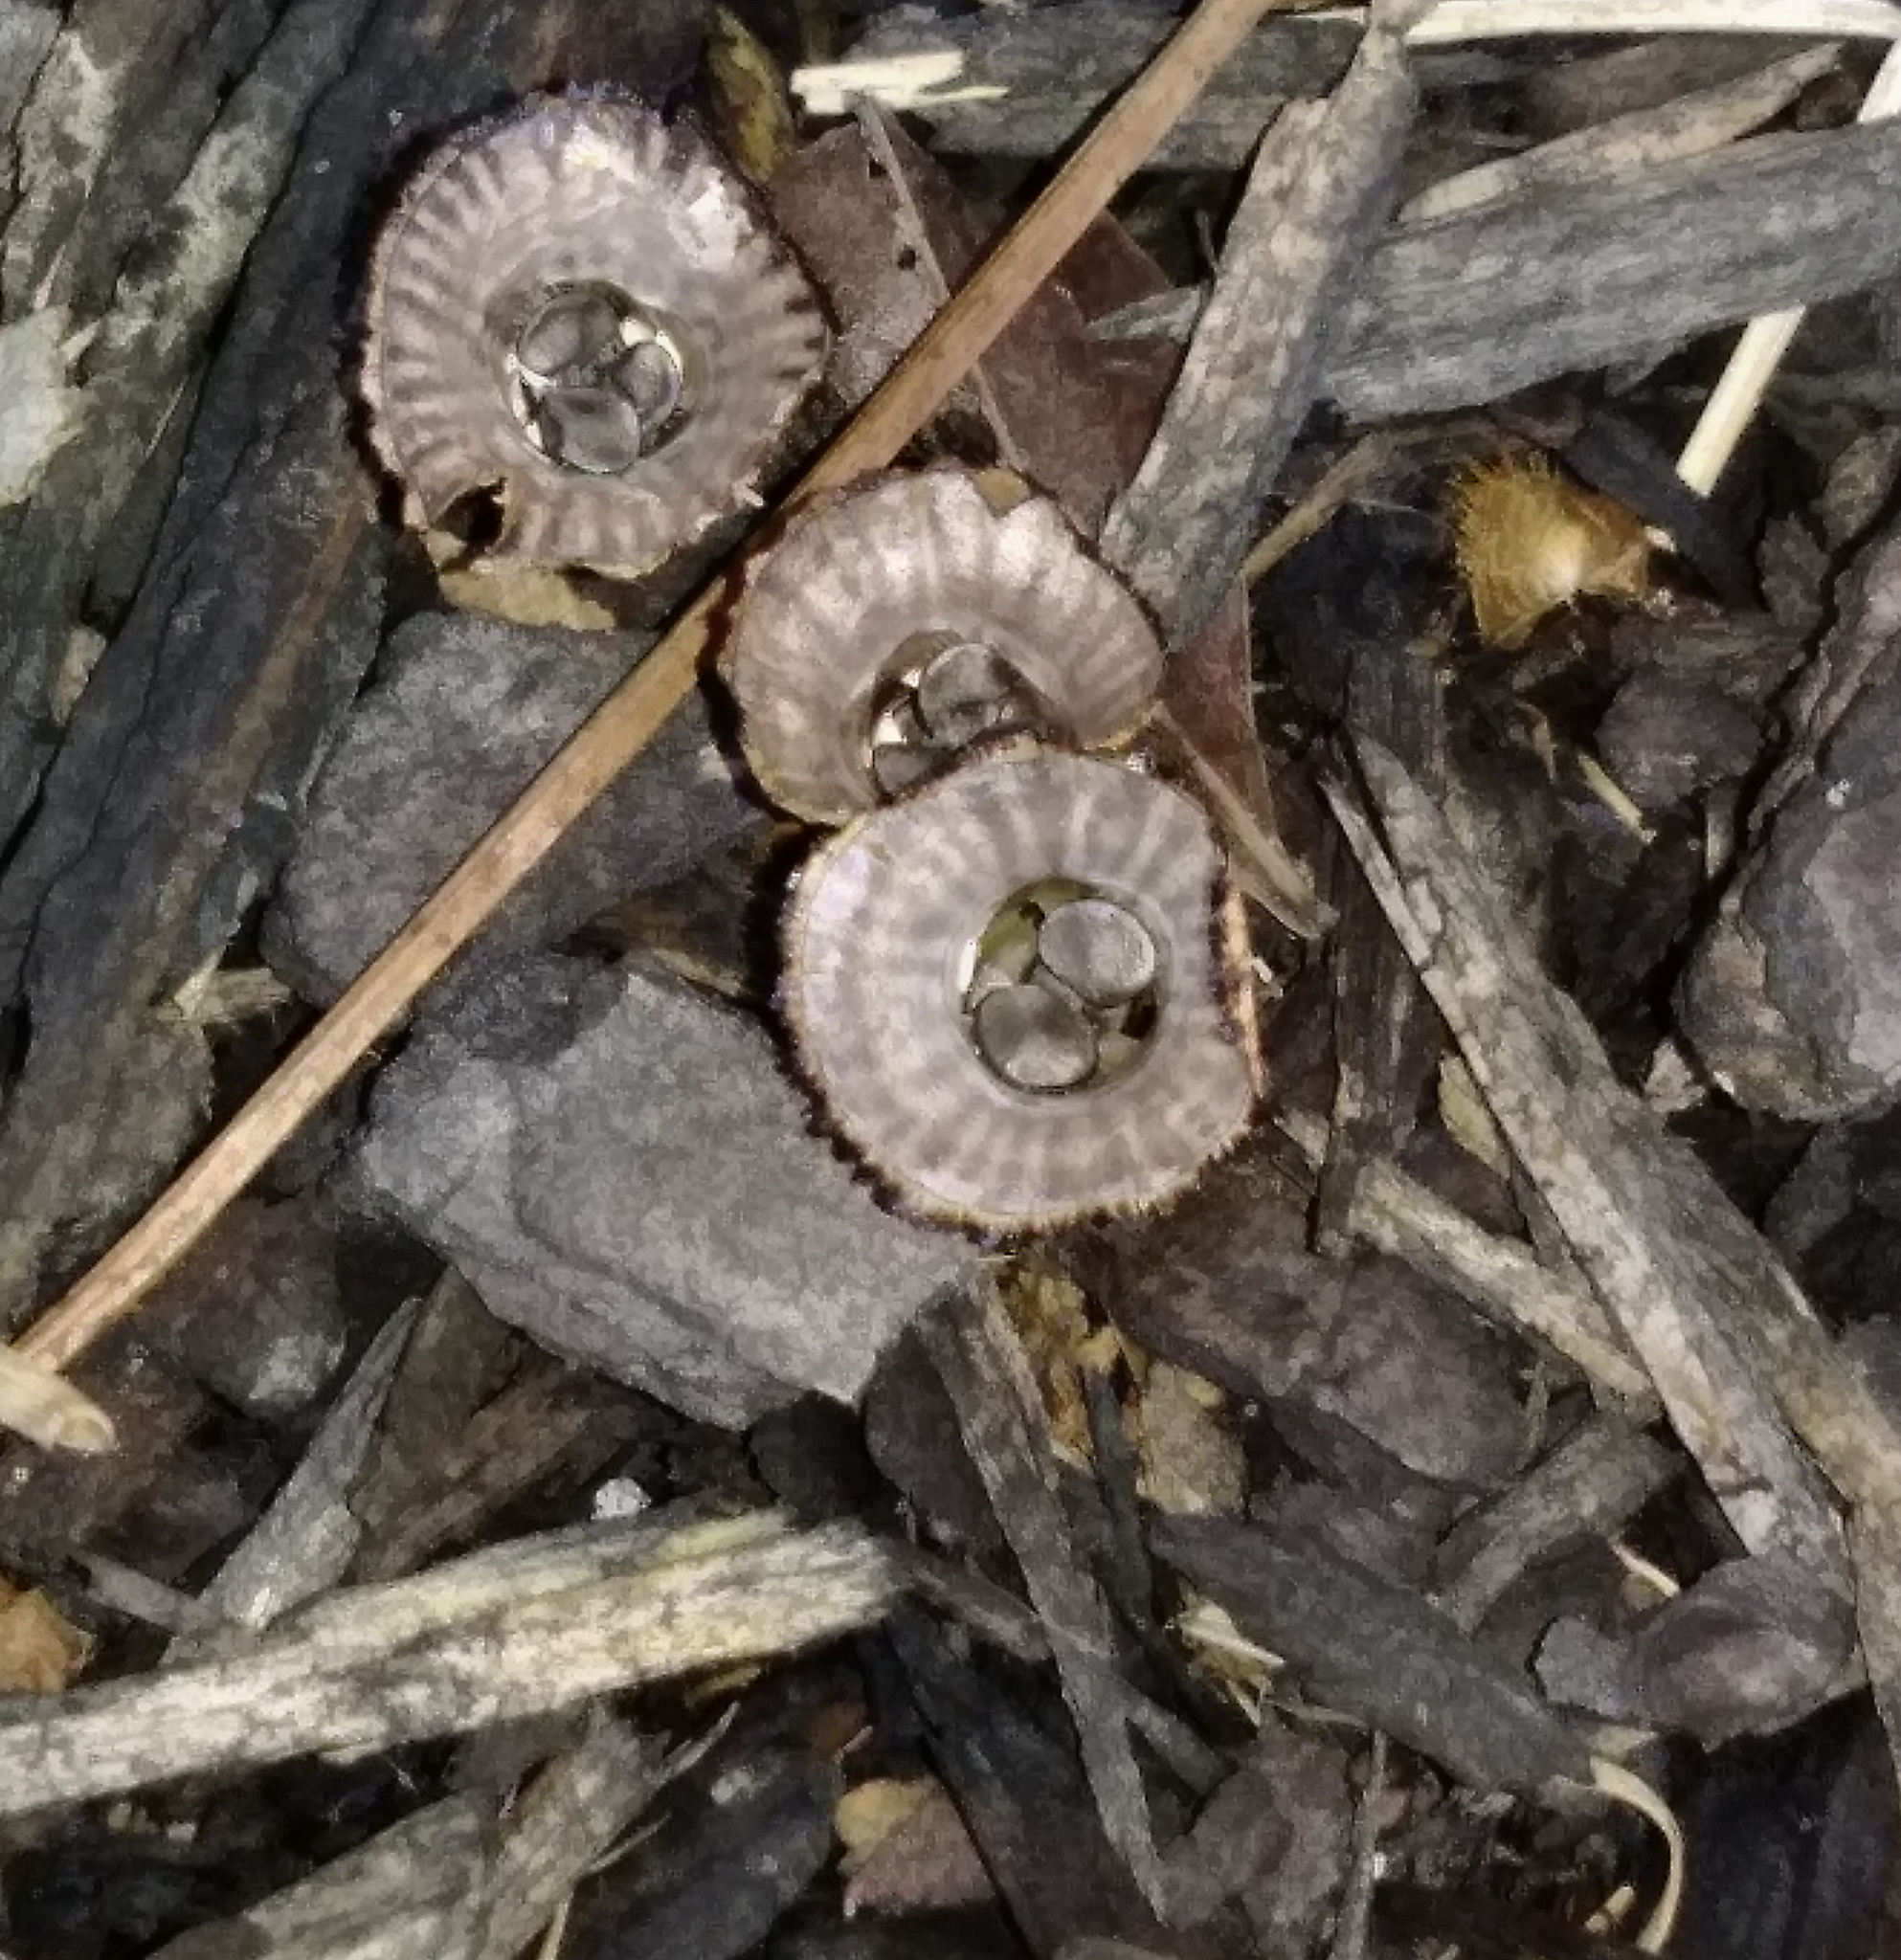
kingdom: Fungi
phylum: Basidiomycota
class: Agaricomycetes
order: Agaricales
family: Agaricaceae
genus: Cyathus
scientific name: Cyathus striatus
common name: Fluted bird's nest
